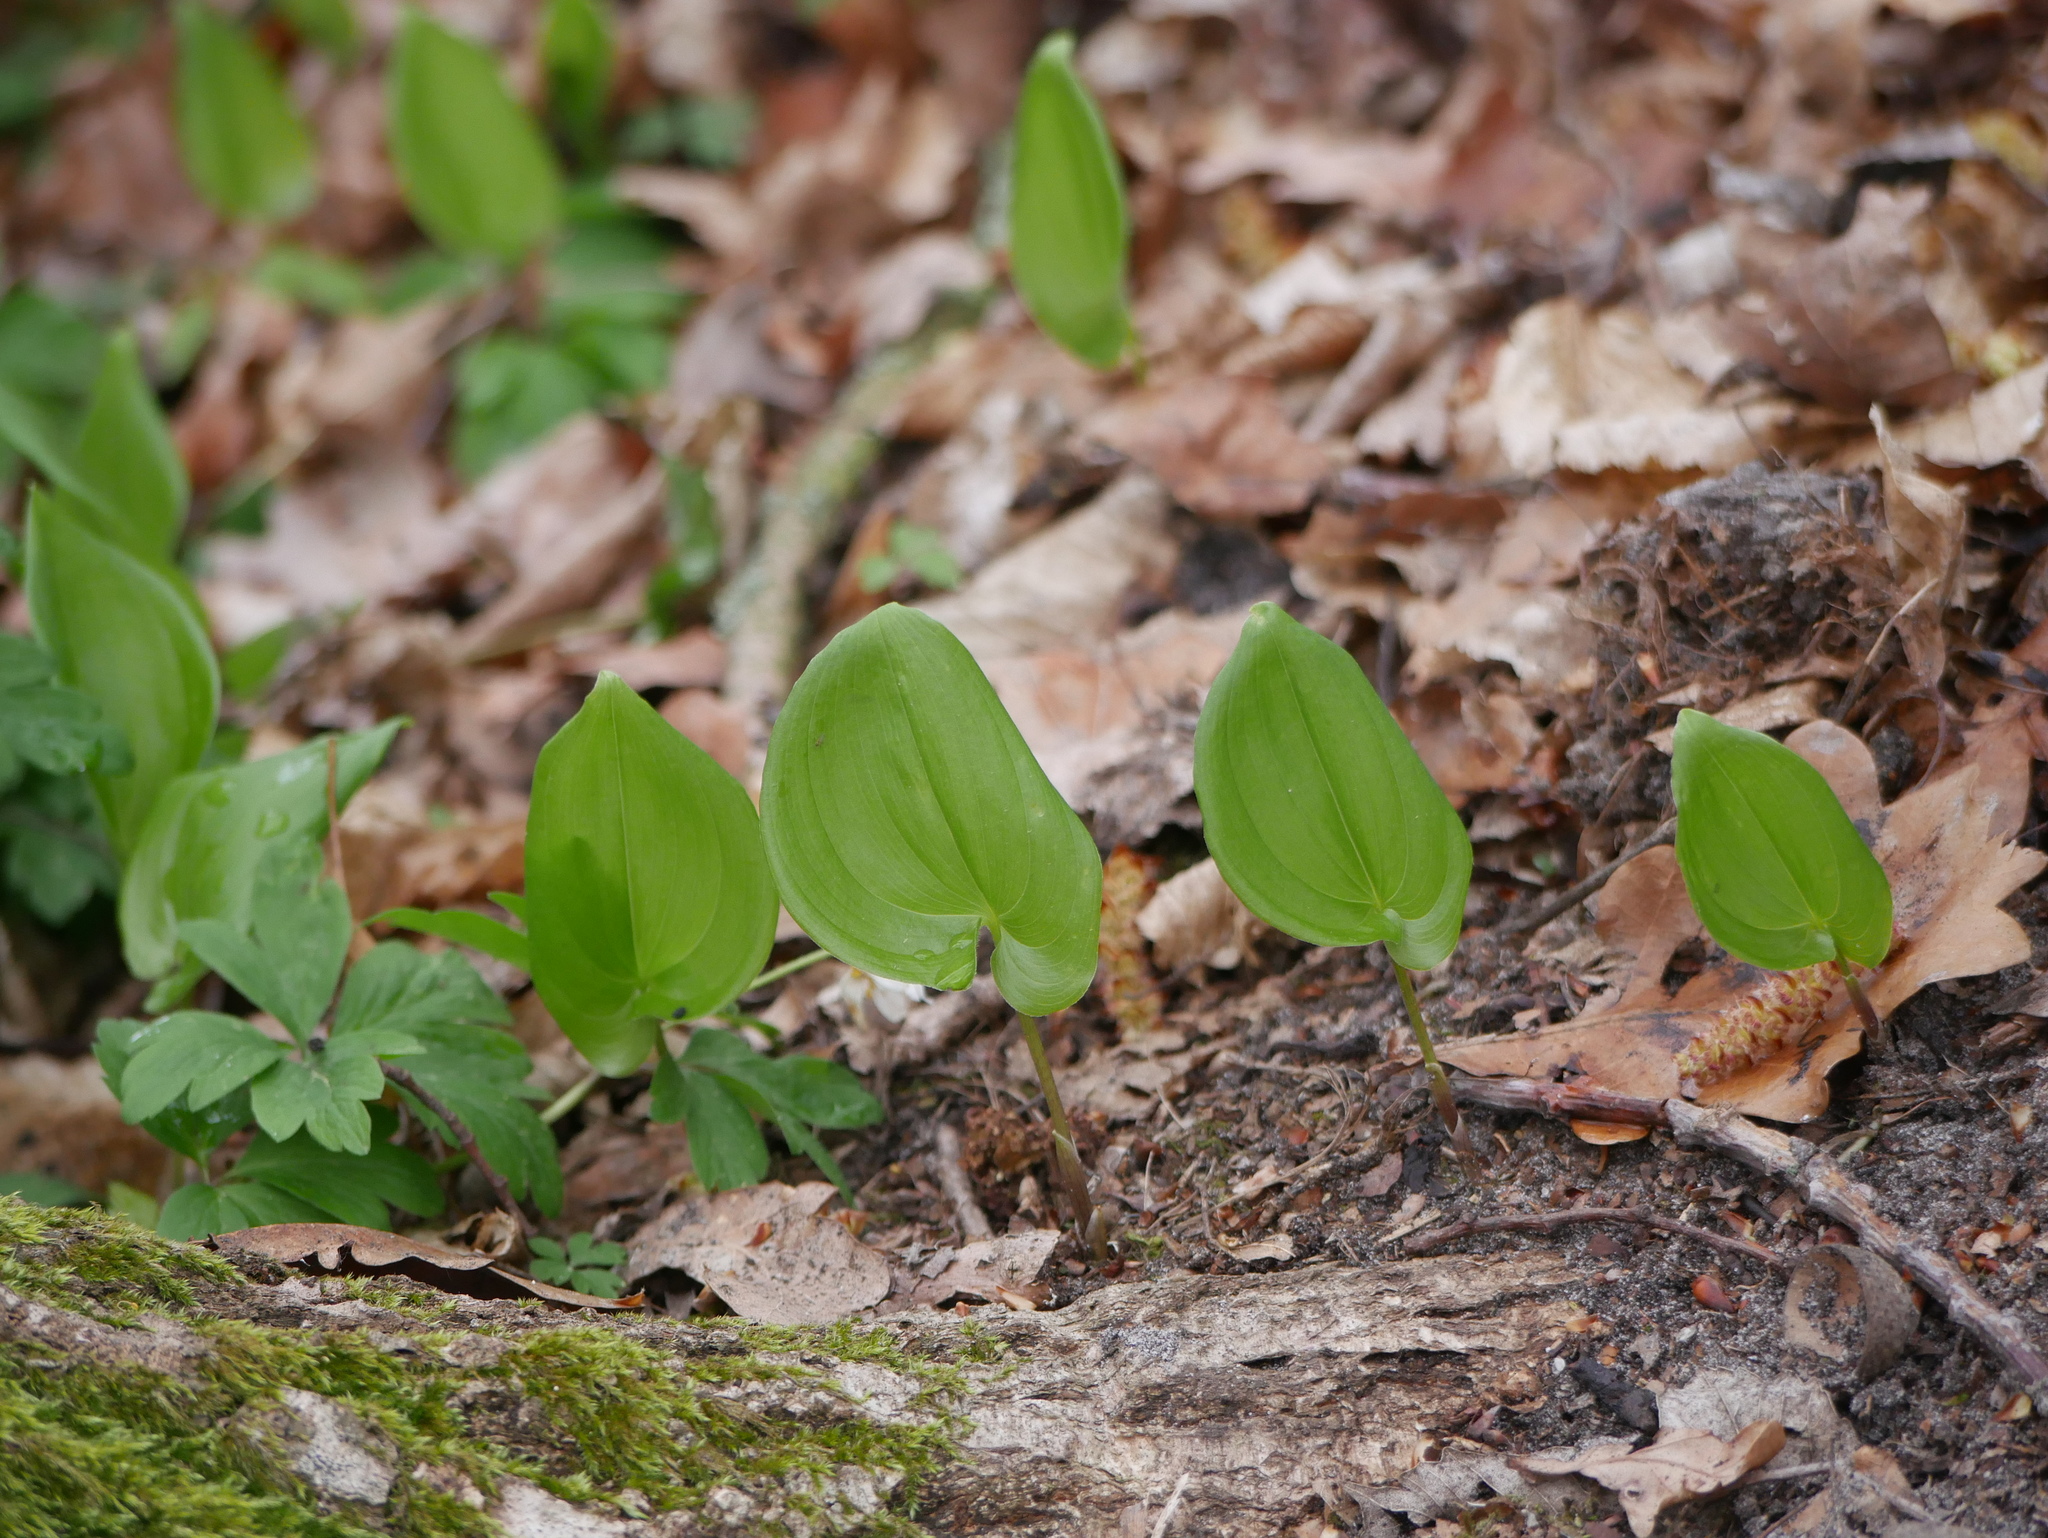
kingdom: Plantae
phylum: Tracheophyta
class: Liliopsida
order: Asparagales
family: Asparagaceae
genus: Maianthemum
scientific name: Maianthemum bifolium
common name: May lily
